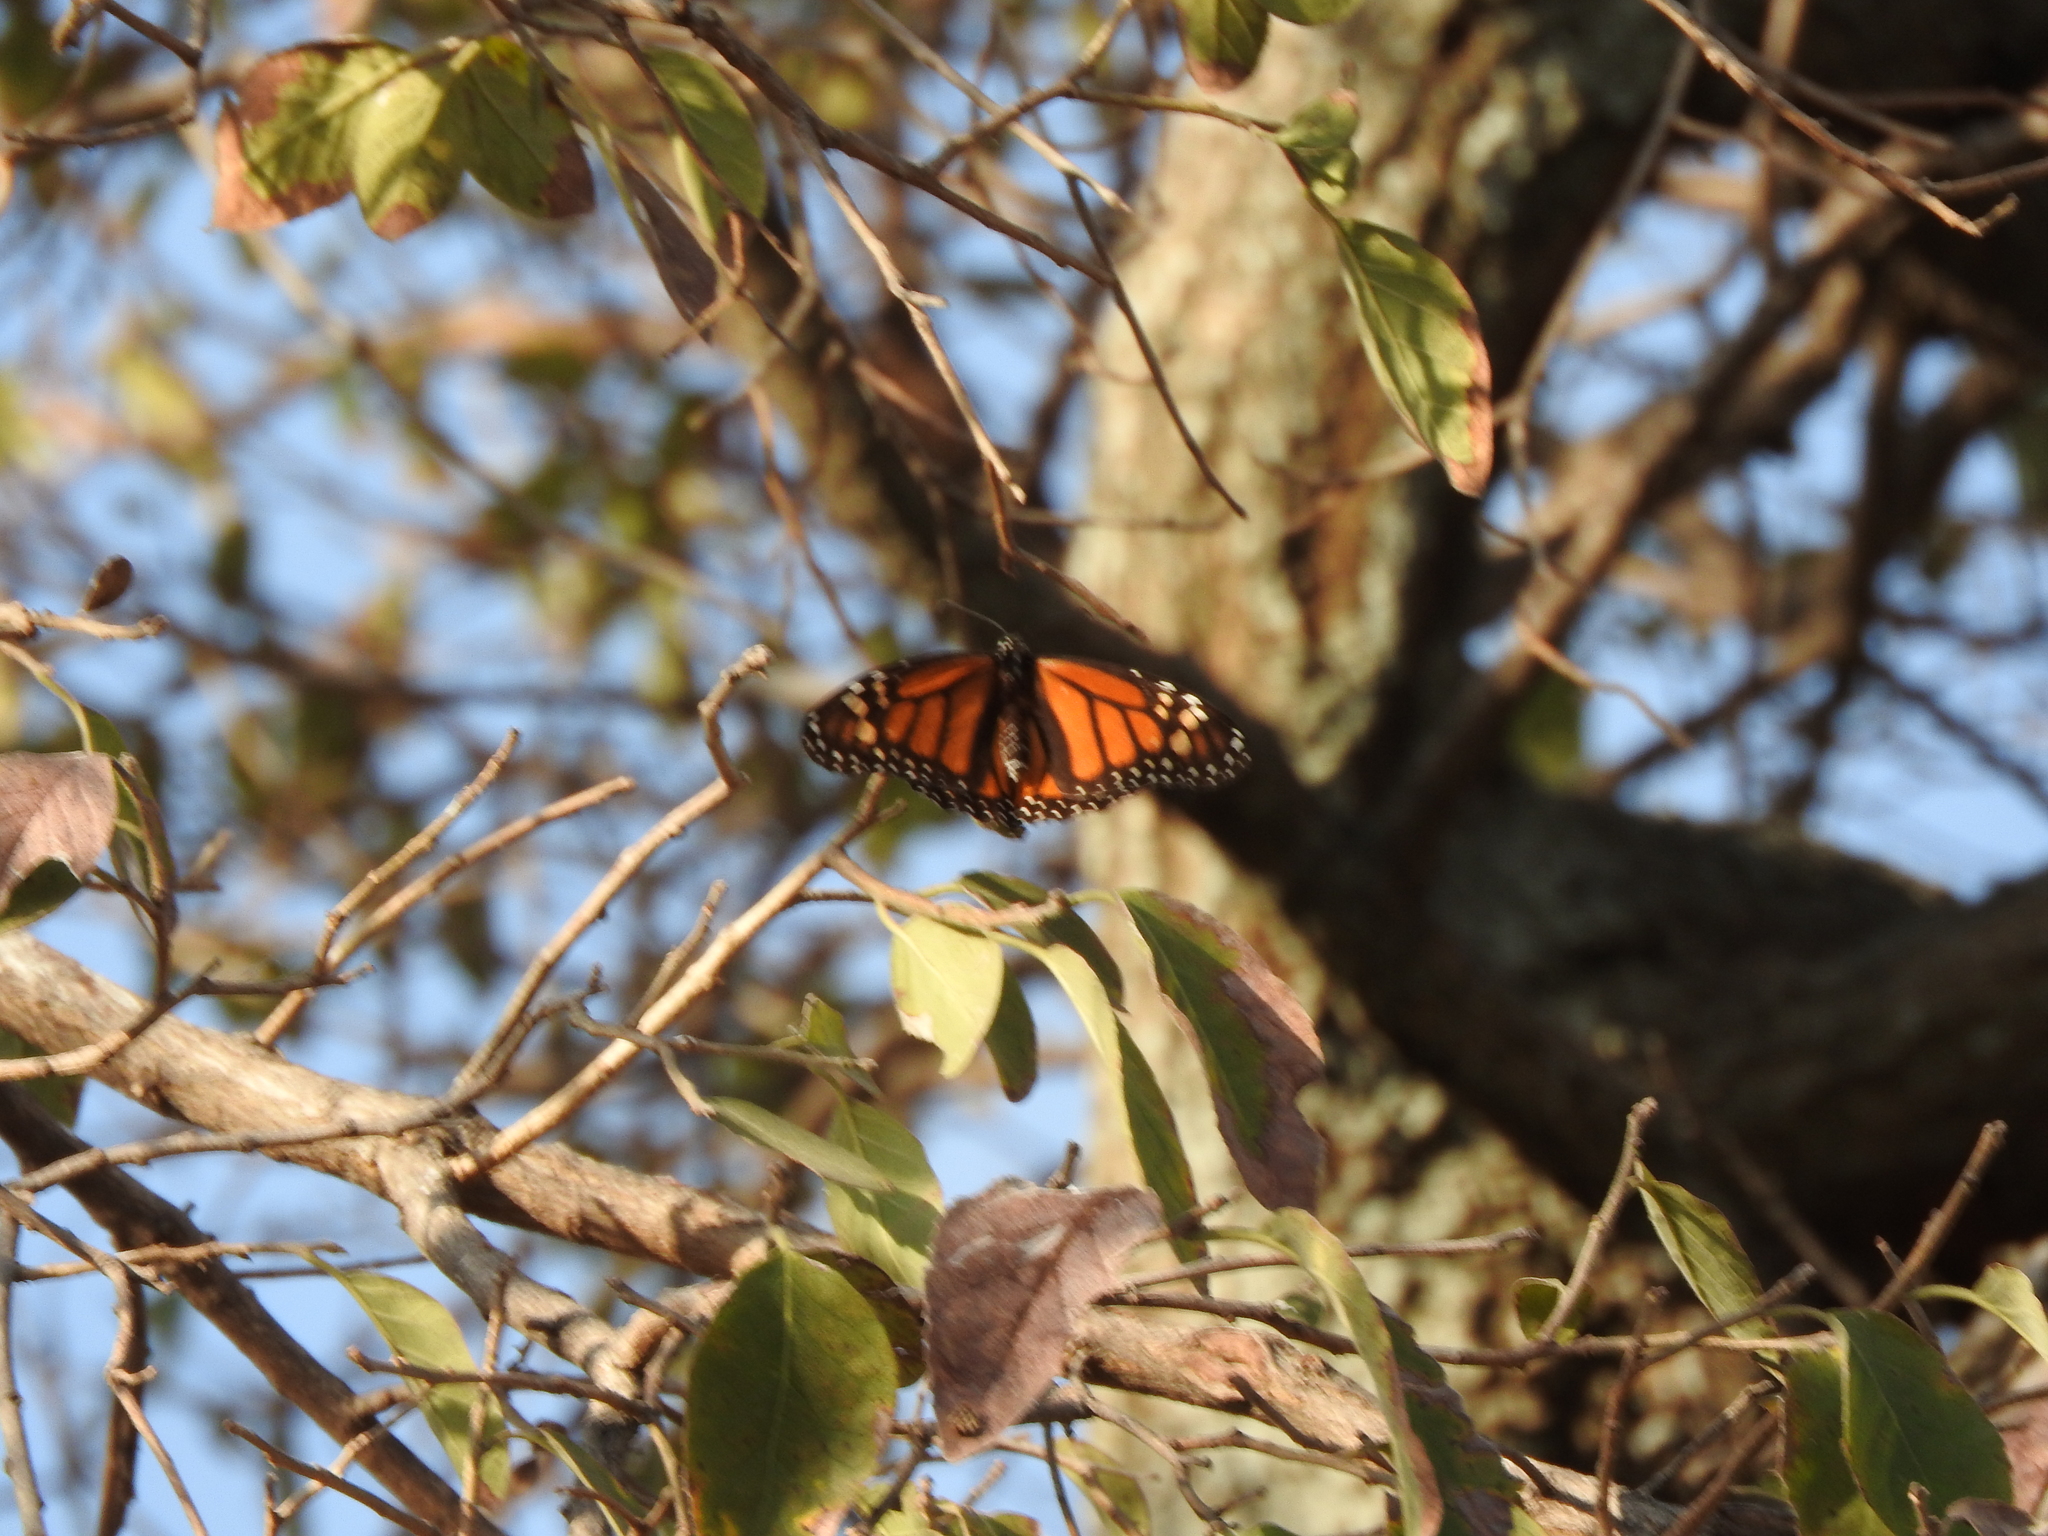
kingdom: Animalia
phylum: Arthropoda
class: Insecta
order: Lepidoptera
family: Nymphalidae
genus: Danaus
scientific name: Danaus plexippus
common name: Monarch
